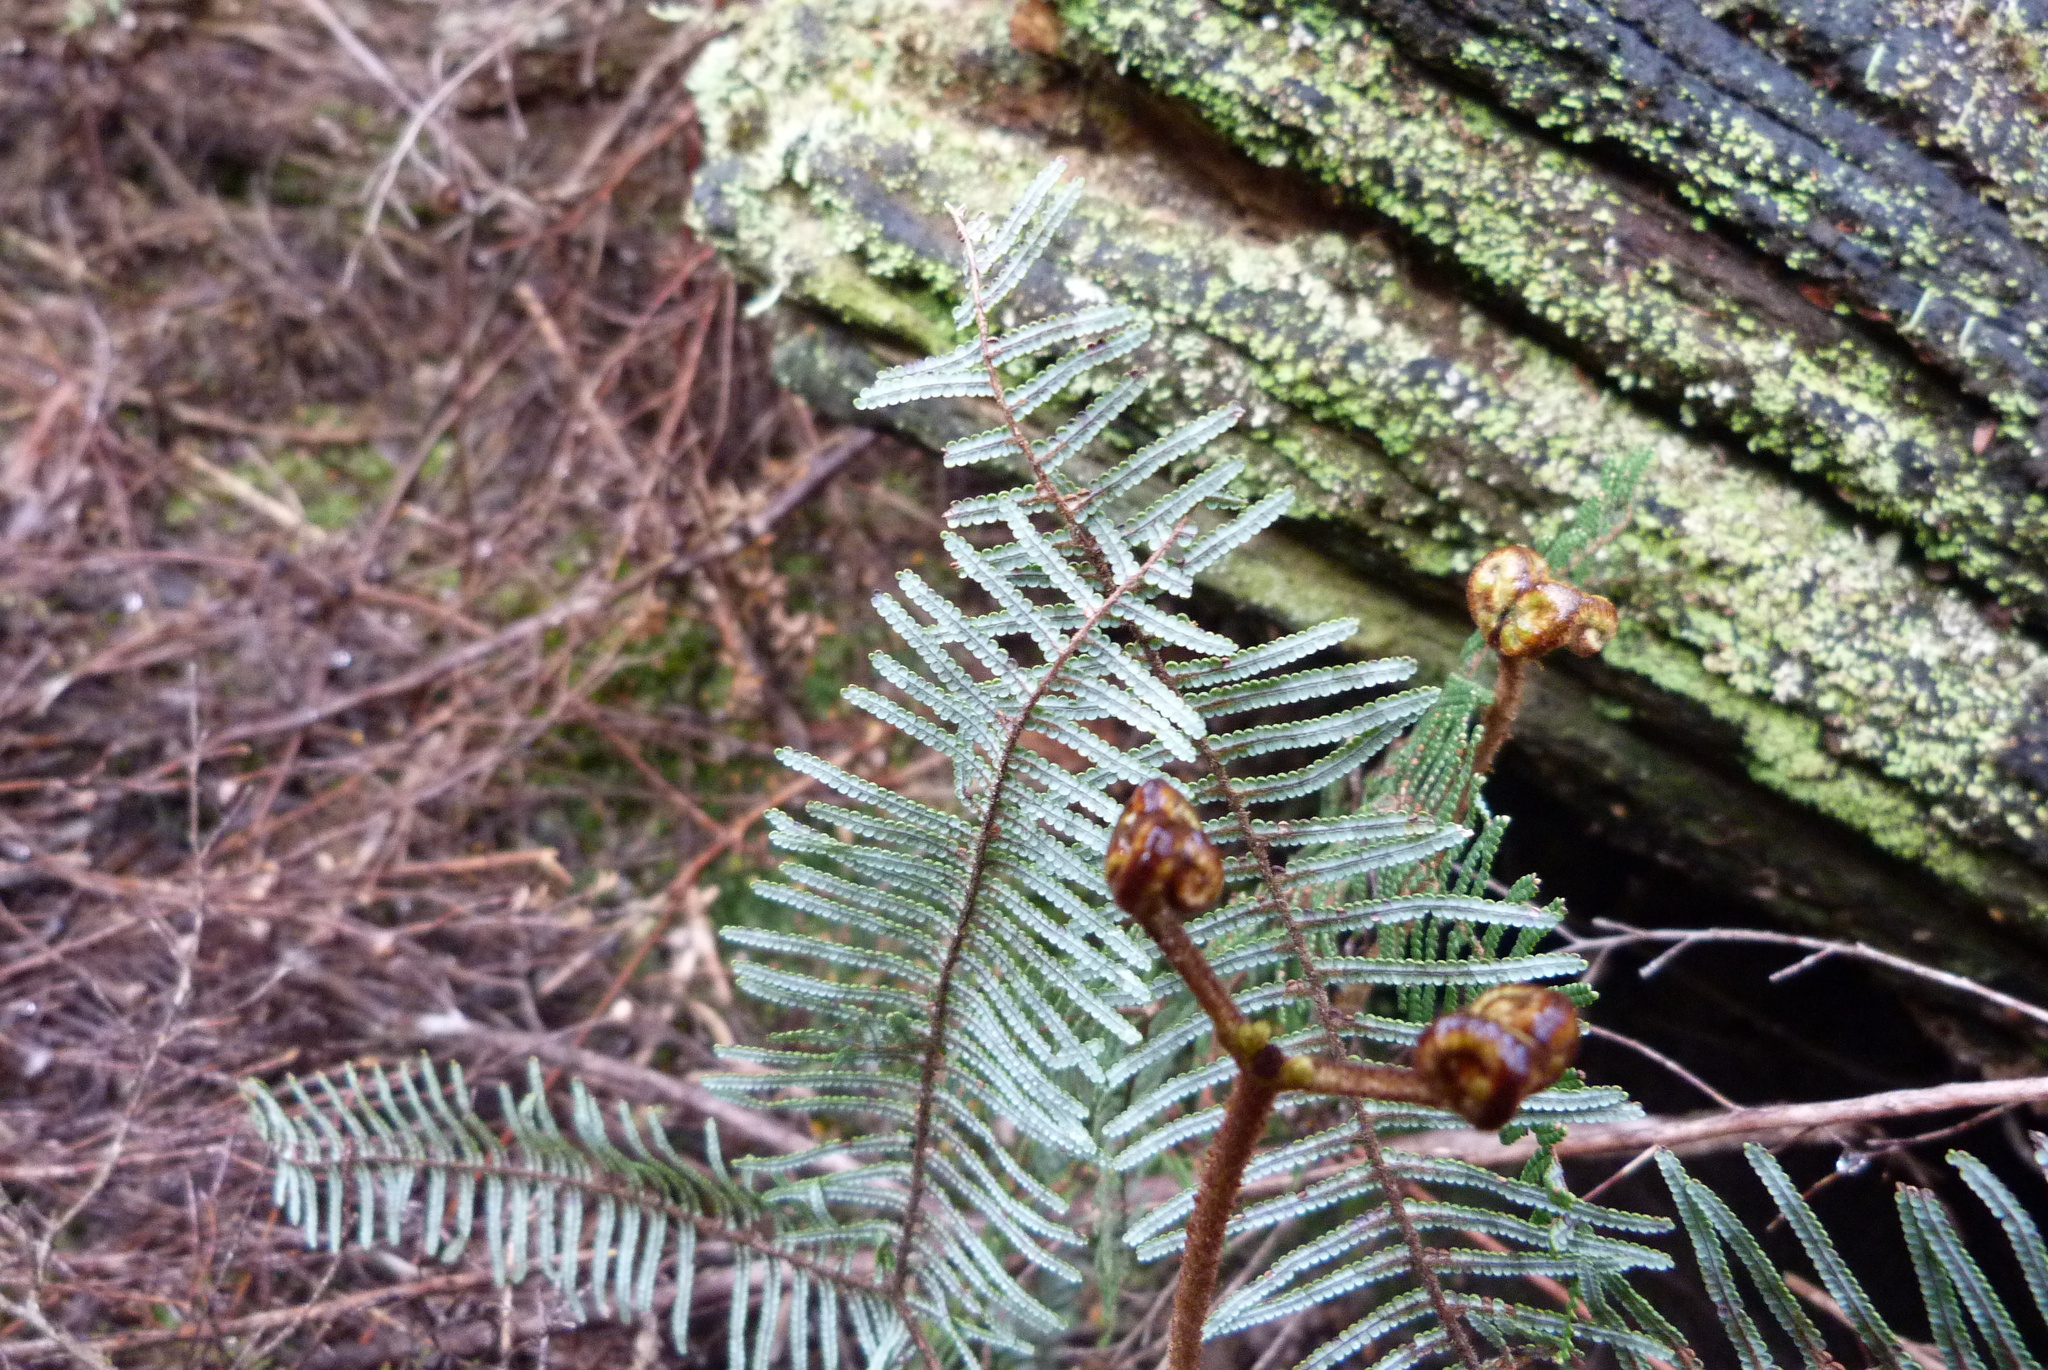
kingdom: Plantae
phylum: Tracheophyta
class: Polypodiopsida
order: Gleicheniales
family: Gleicheniaceae
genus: Gleichenia
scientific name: Gleichenia dicarpa
